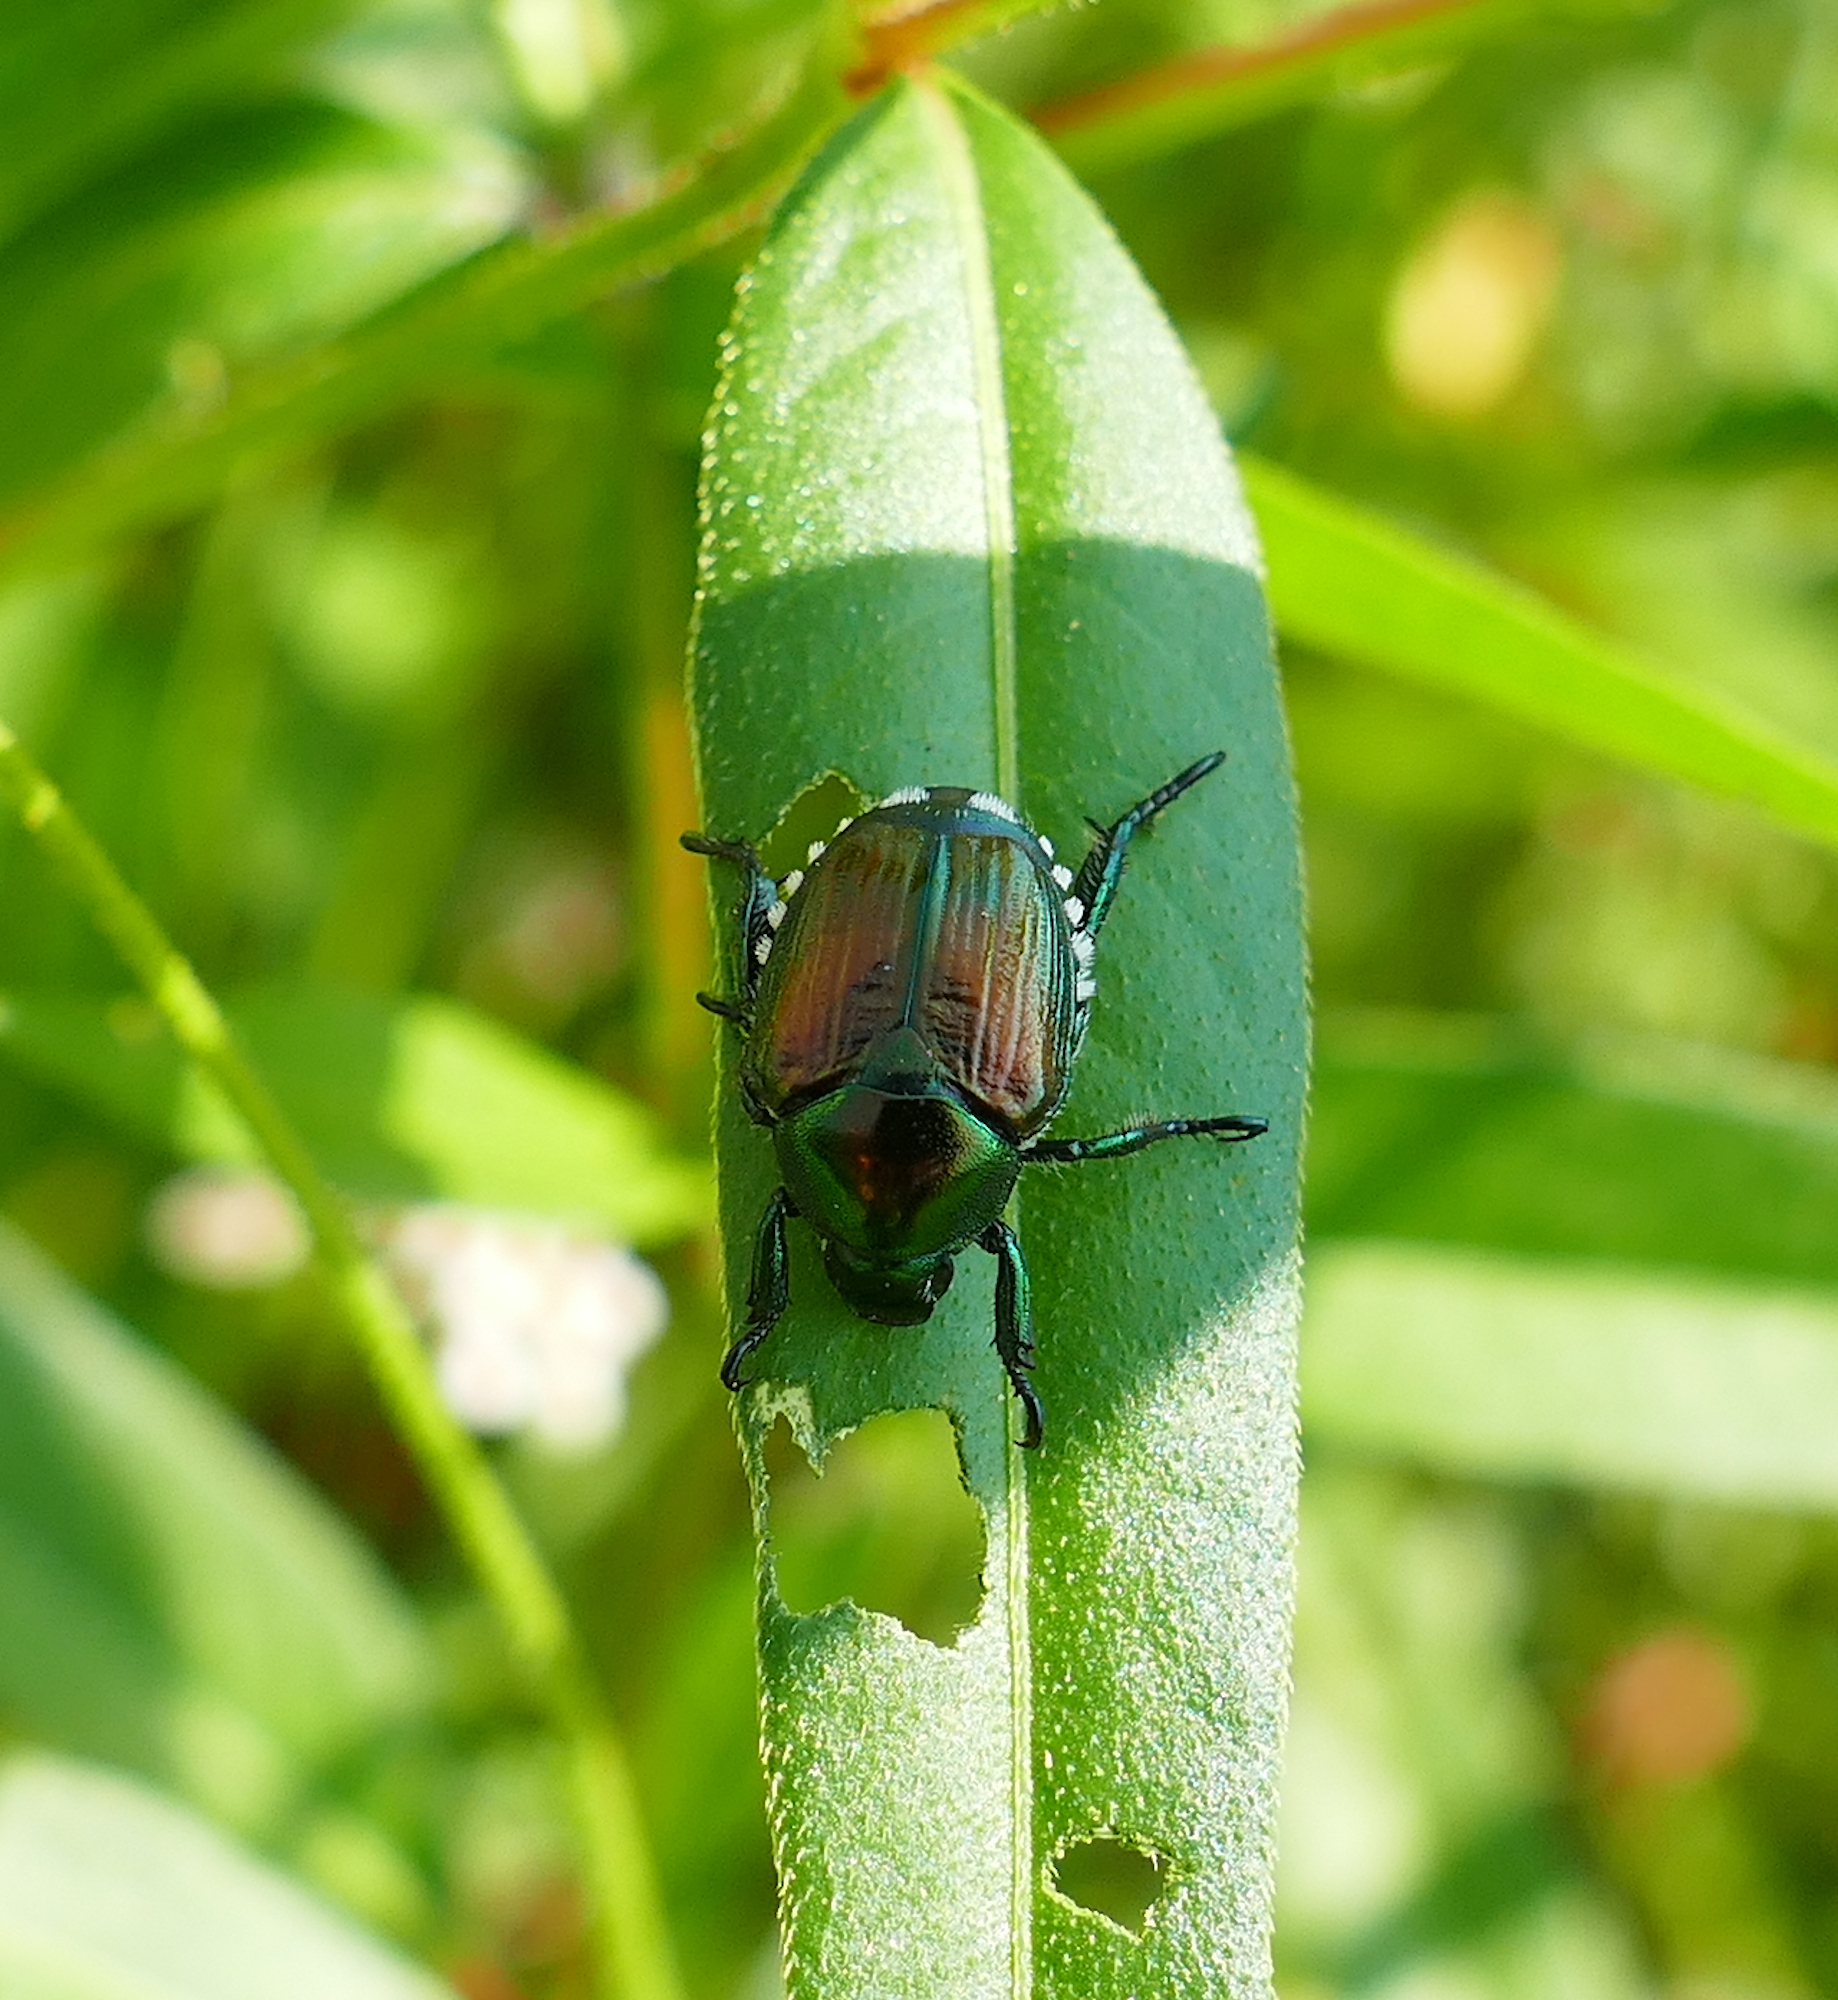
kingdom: Animalia
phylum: Arthropoda
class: Insecta
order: Coleoptera
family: Scarabaeidae
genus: Popillia
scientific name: Popillia japonica
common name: Japanese beetle
